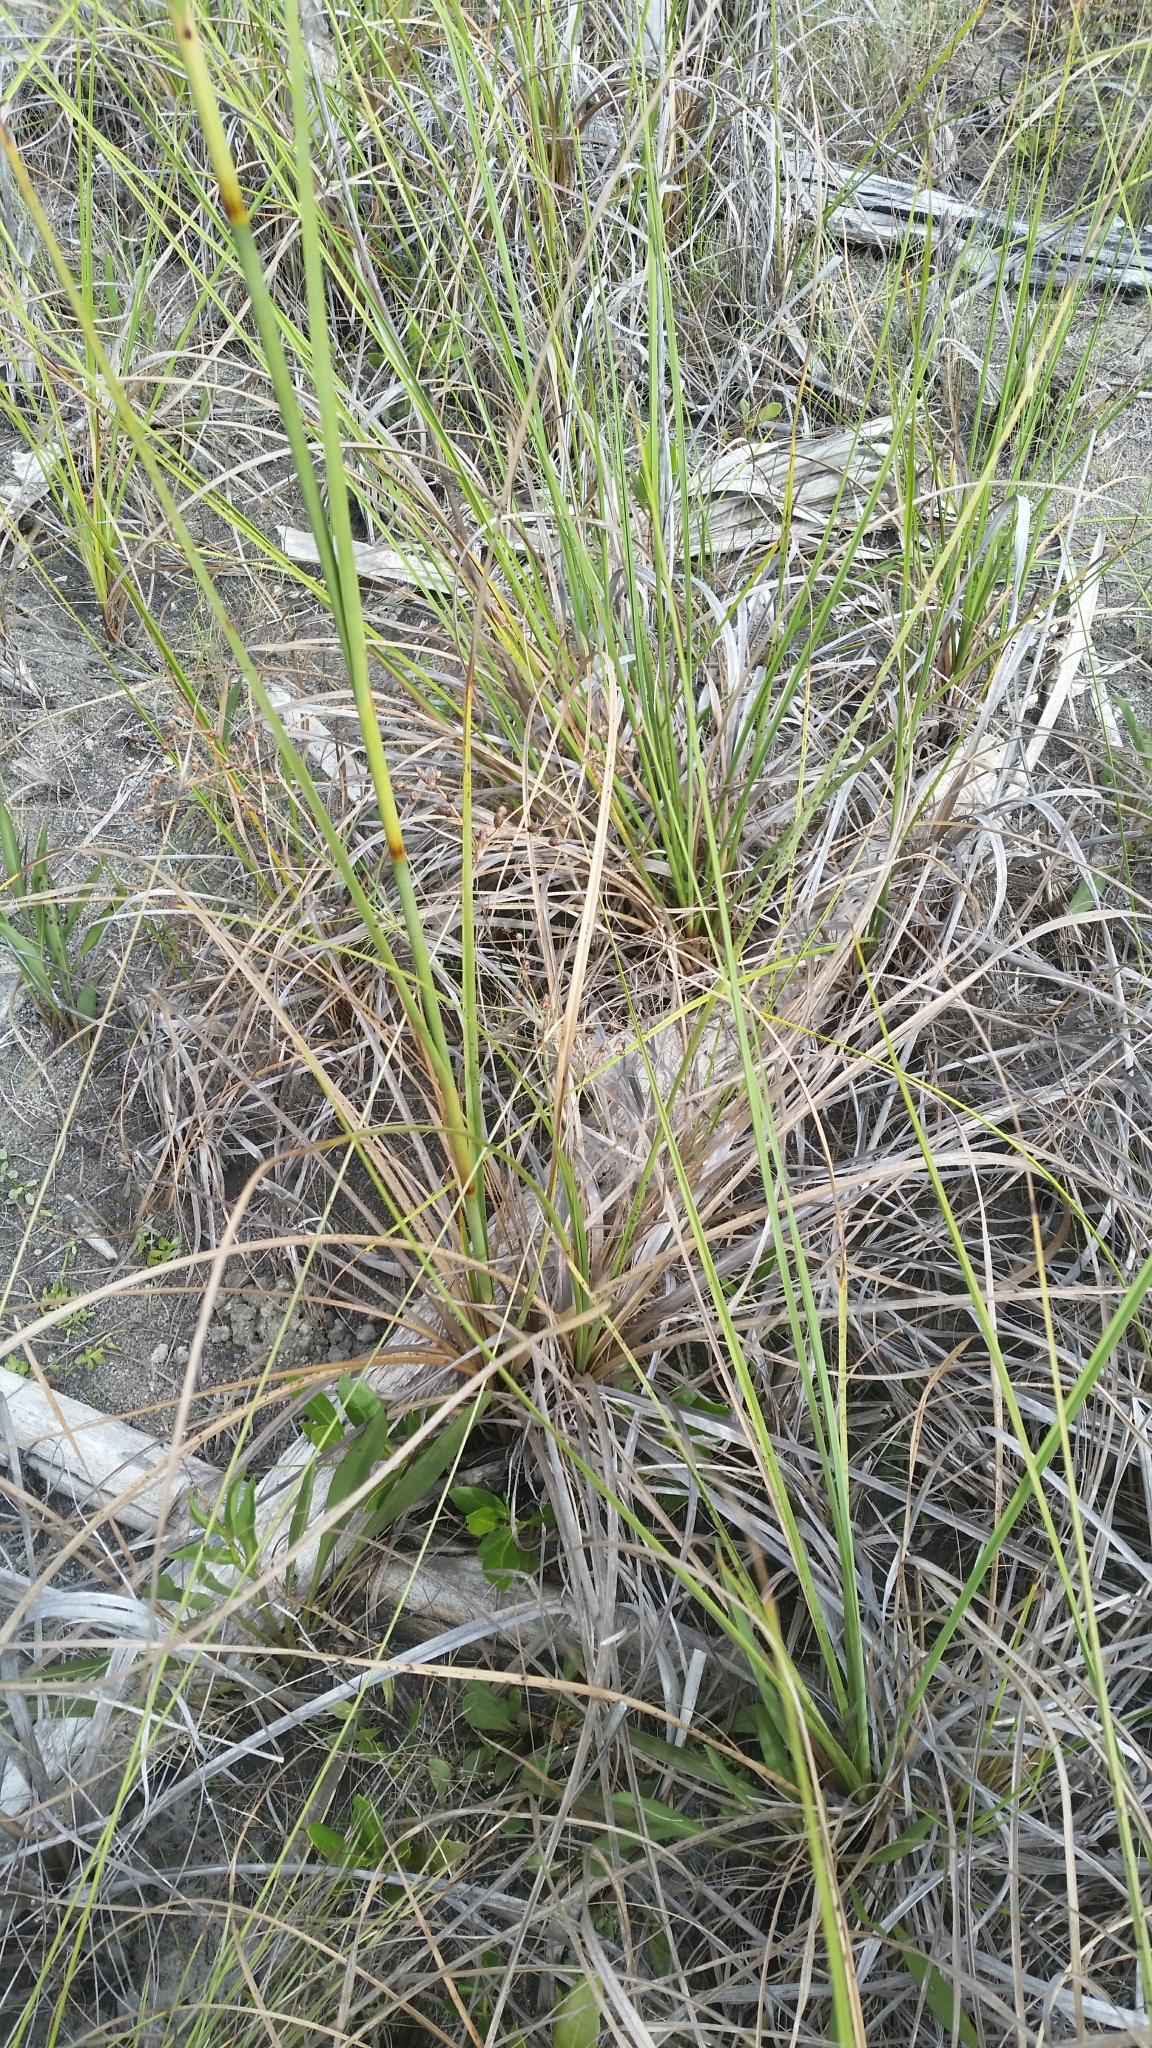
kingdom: Plantae
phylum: Tracheophyta
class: Liliopsida
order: Poales
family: Cyperaceae
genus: Cladium
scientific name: Cladium mariscus
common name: Great fen-sedge
